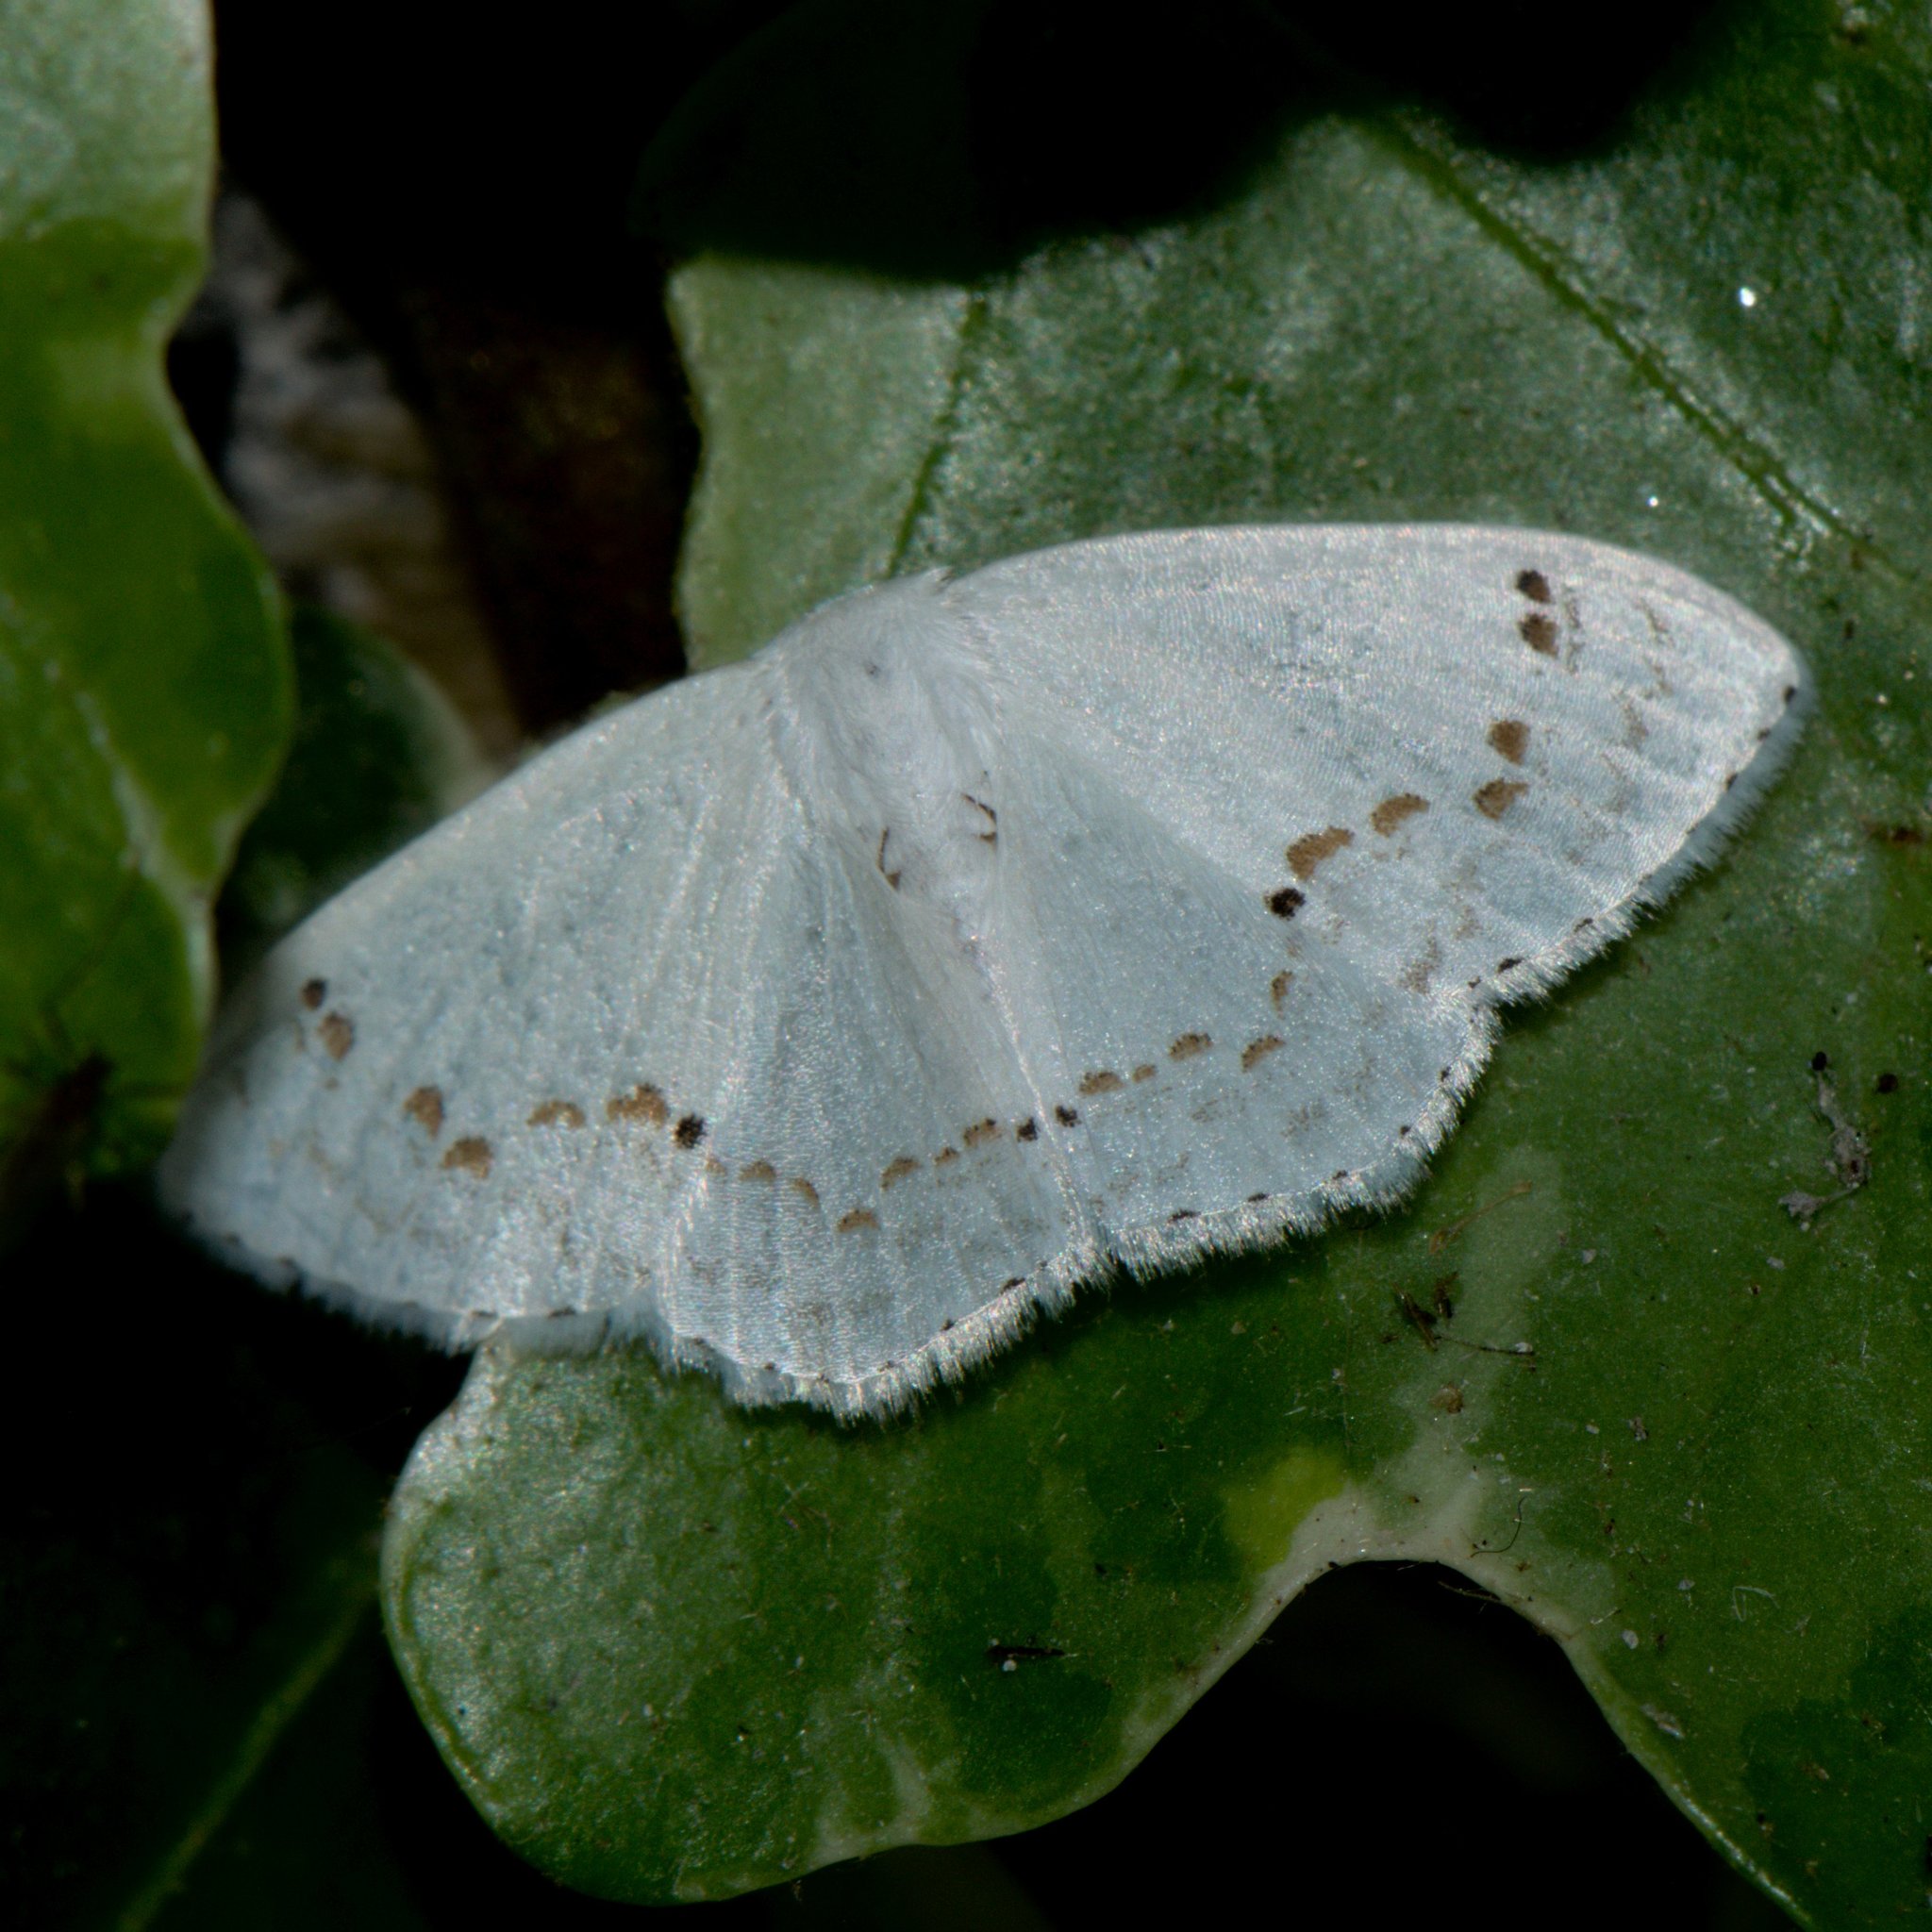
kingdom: Animalia
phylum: Arthropoda
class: Insecta
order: Lepidoptera
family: Drepanidae
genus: Teldenia
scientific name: Teldenia vestigiata
